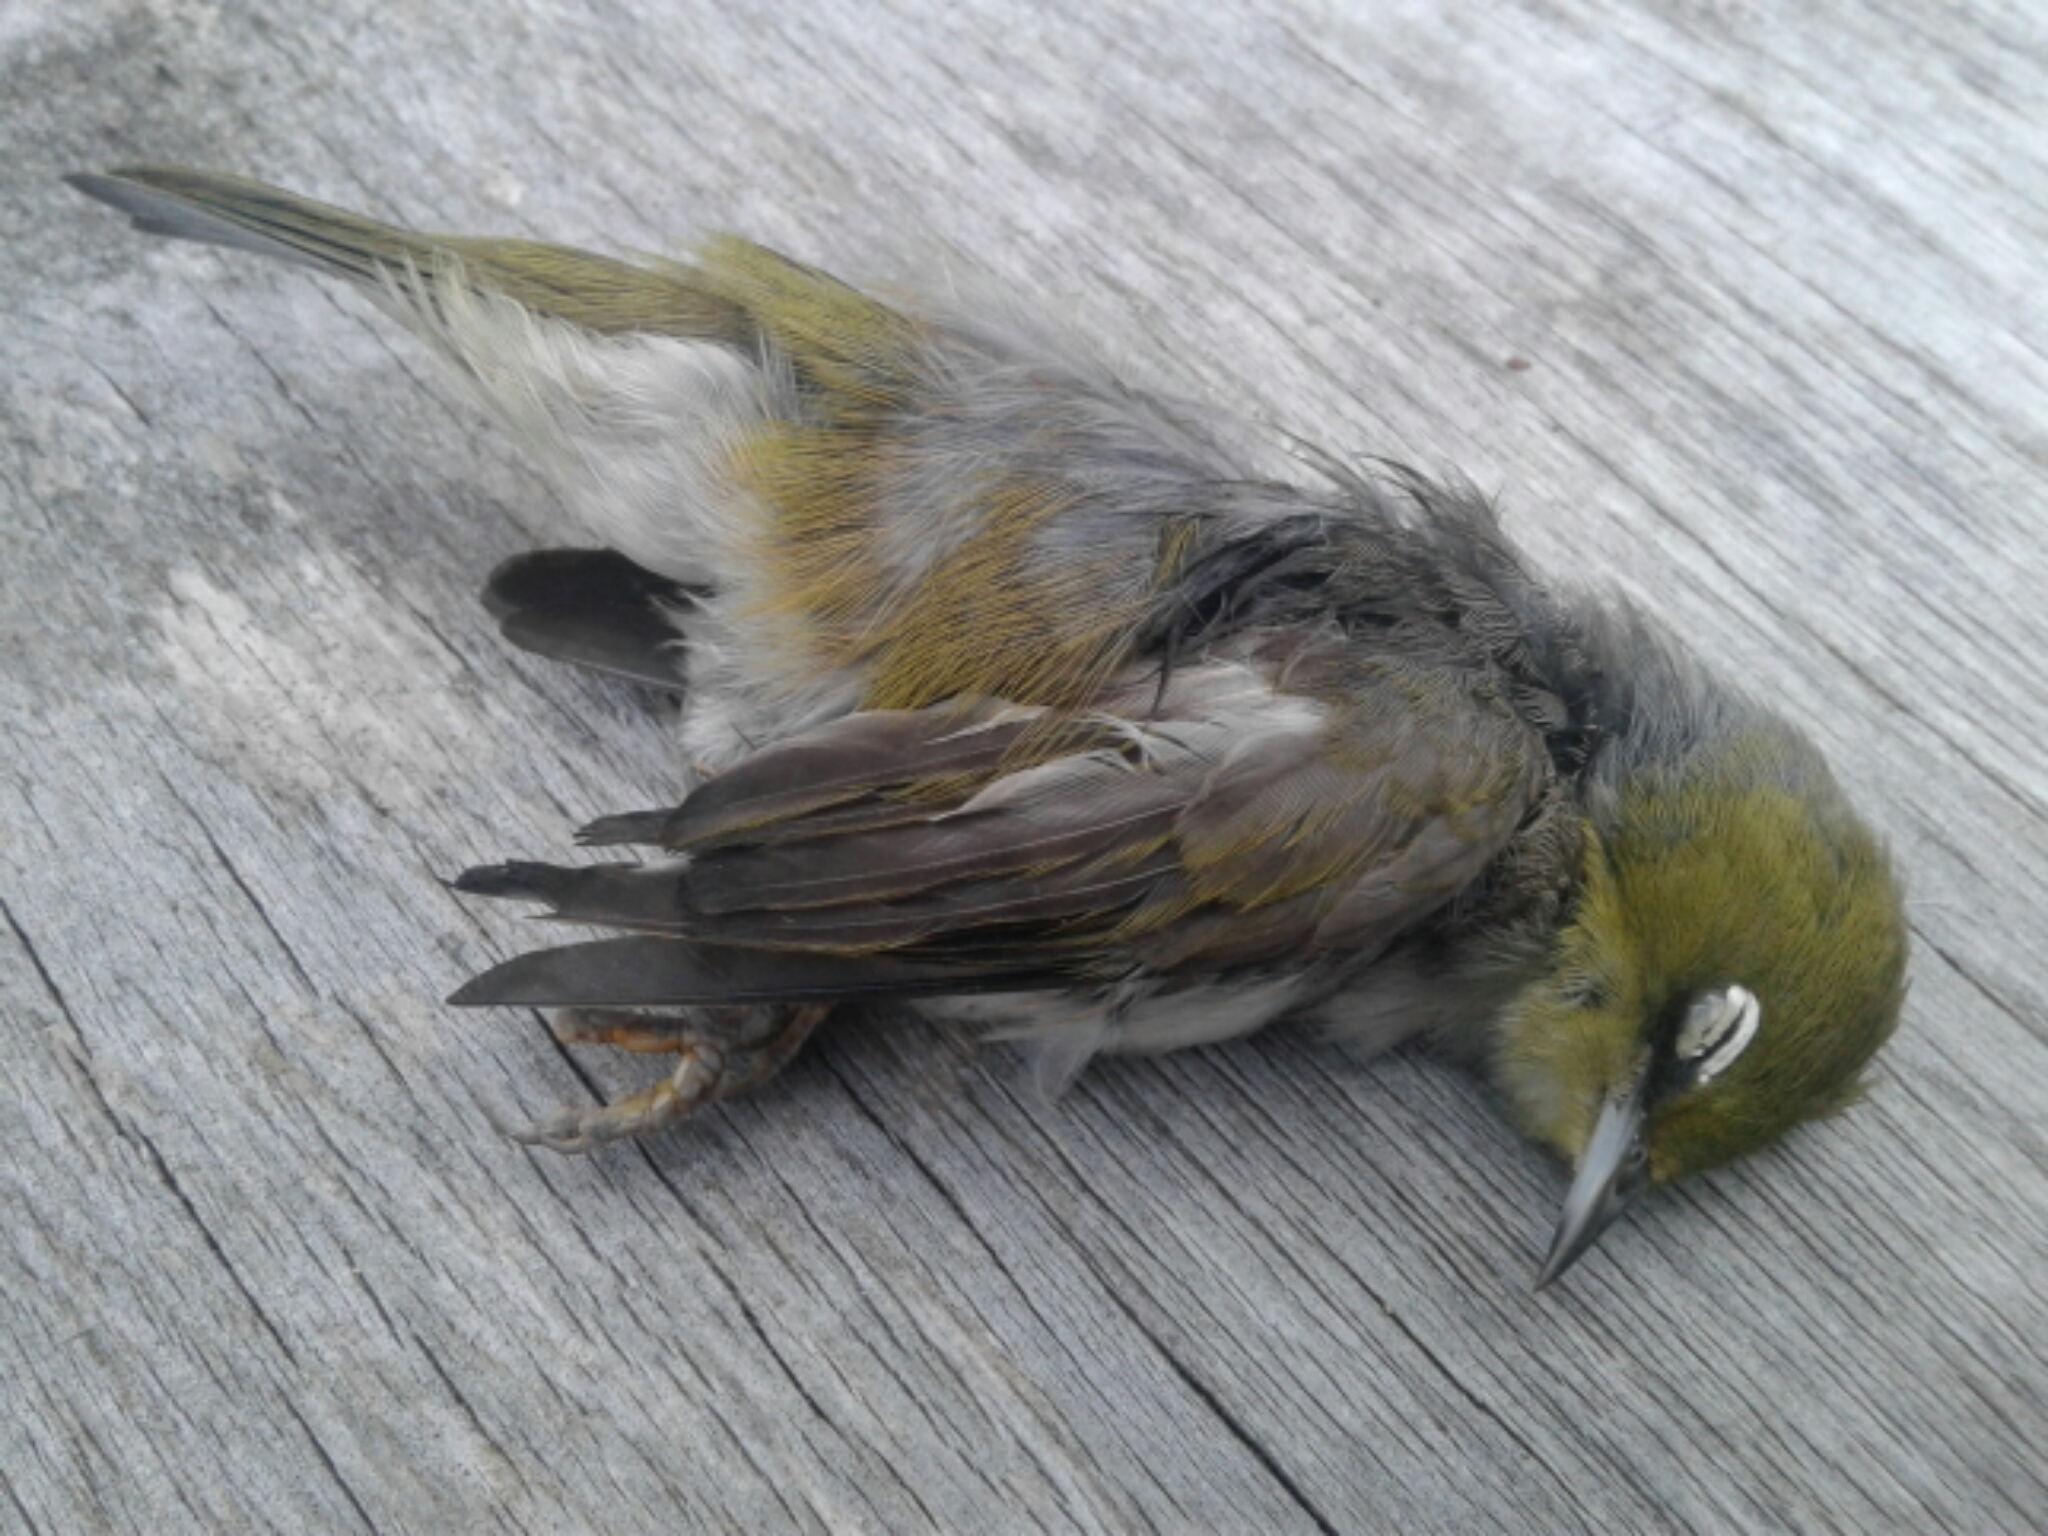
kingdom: Animalia
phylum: Chordata
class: Aves
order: Passeriformes
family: Zosteropidae
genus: Zosterops
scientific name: Zosterops lateralis
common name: Silvereye
